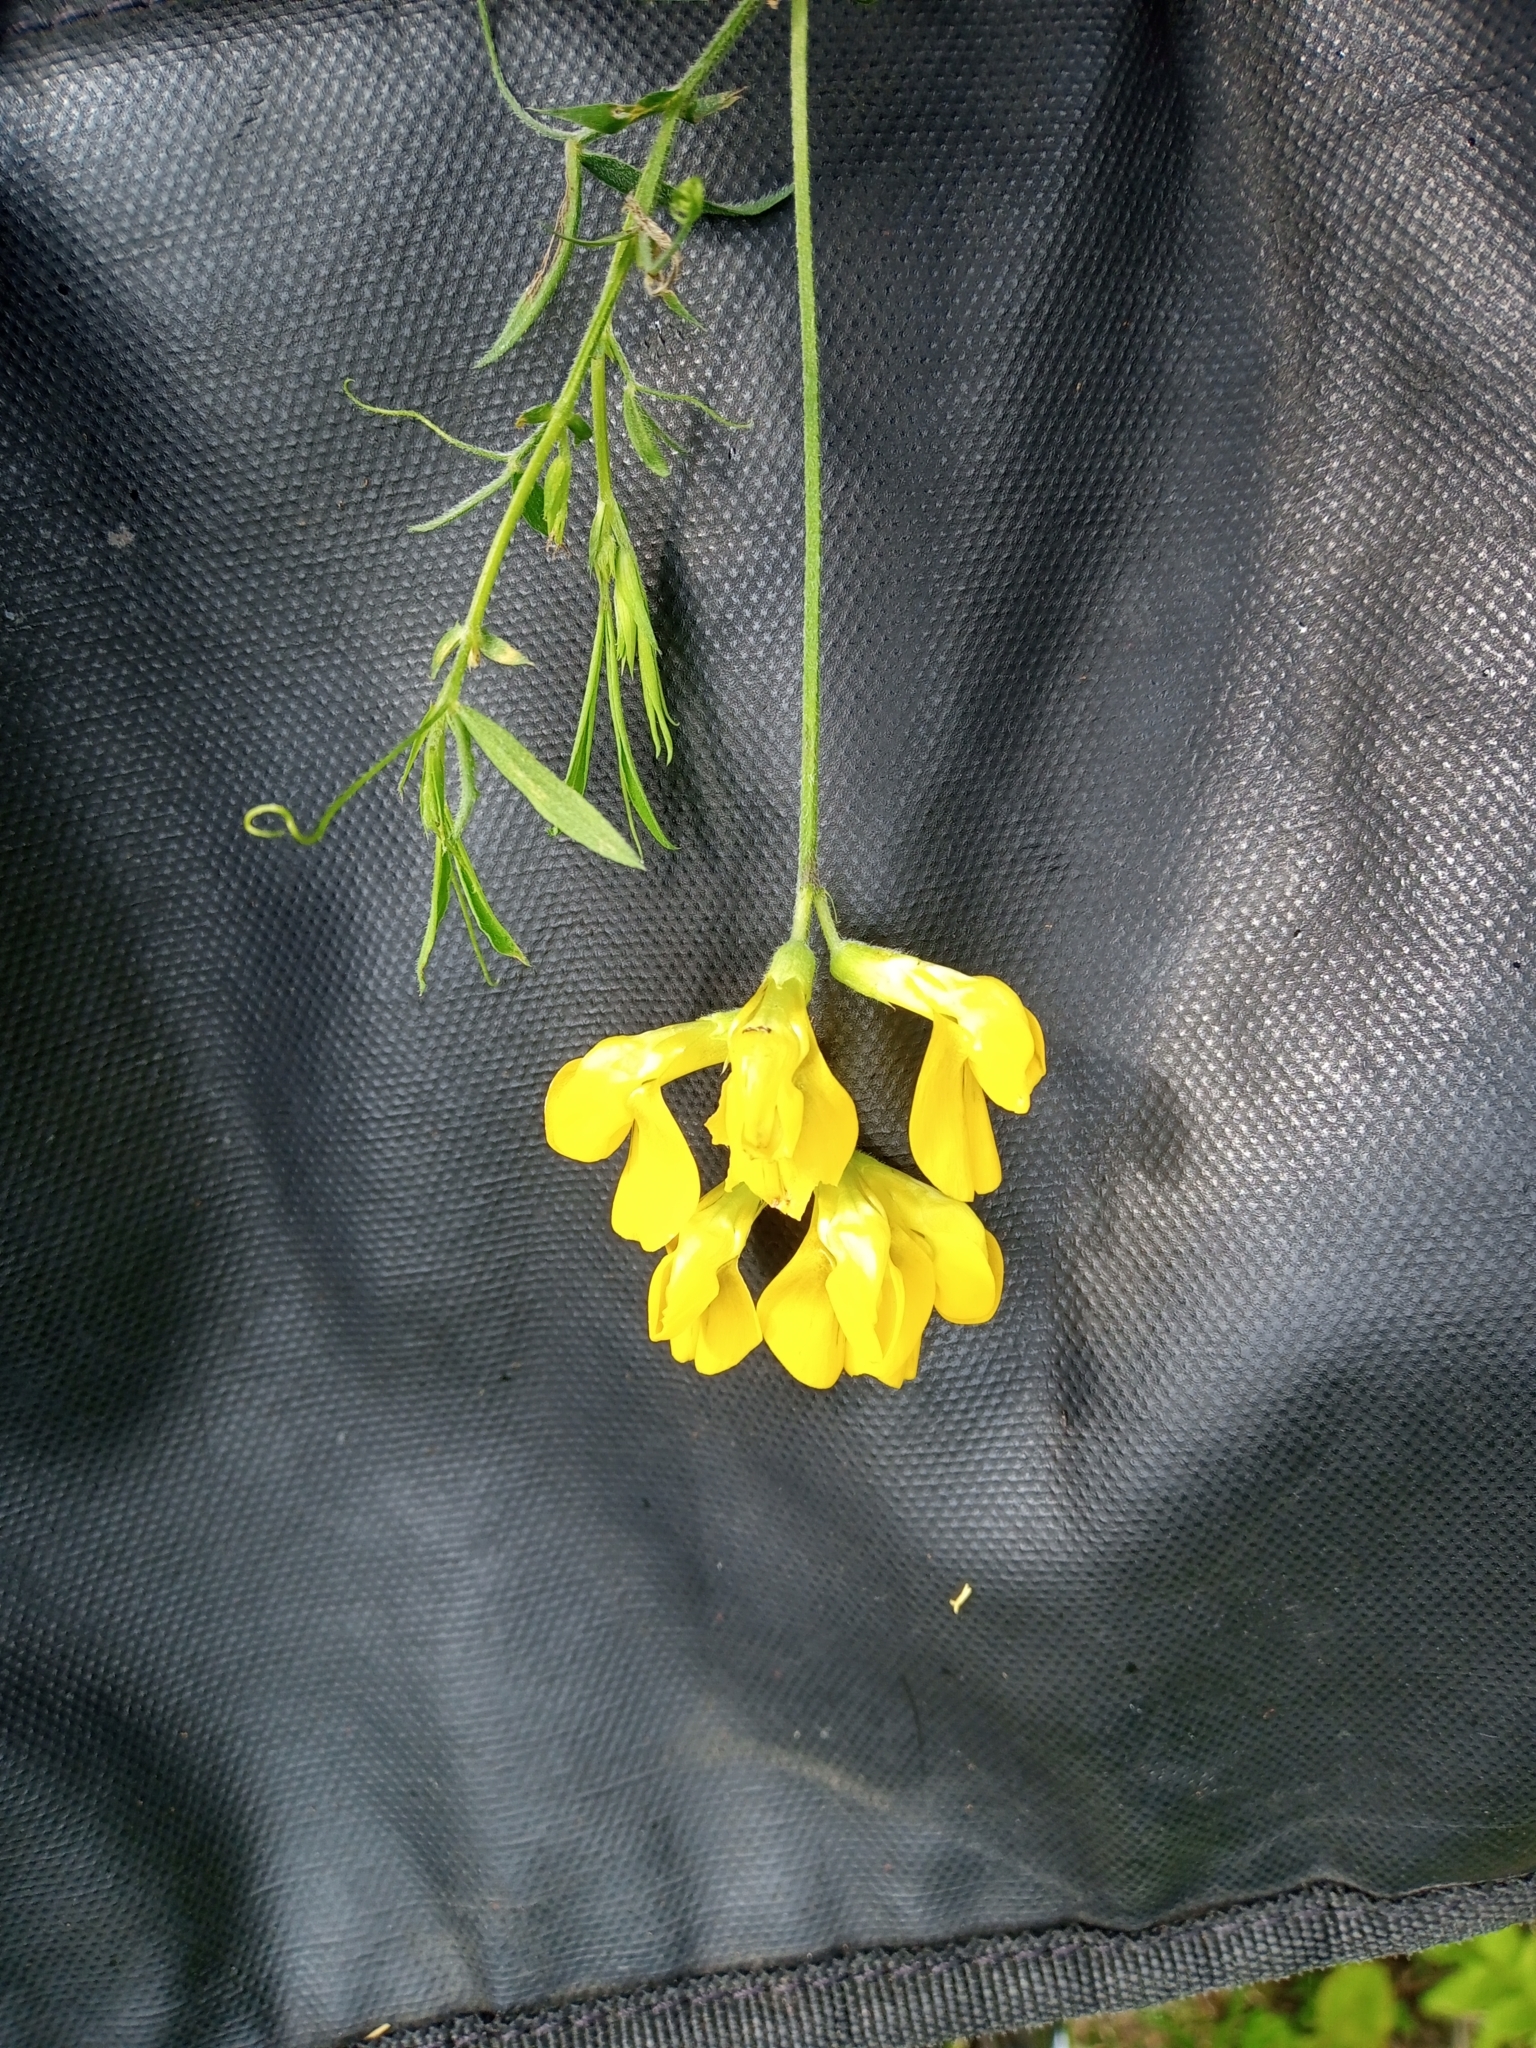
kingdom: Plantae
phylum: Tracheophyta
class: Magnoliopsida
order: Fabales
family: Fabaceae
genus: Lathyrus
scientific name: Lathyrus pratensis
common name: Meadow vetchling
